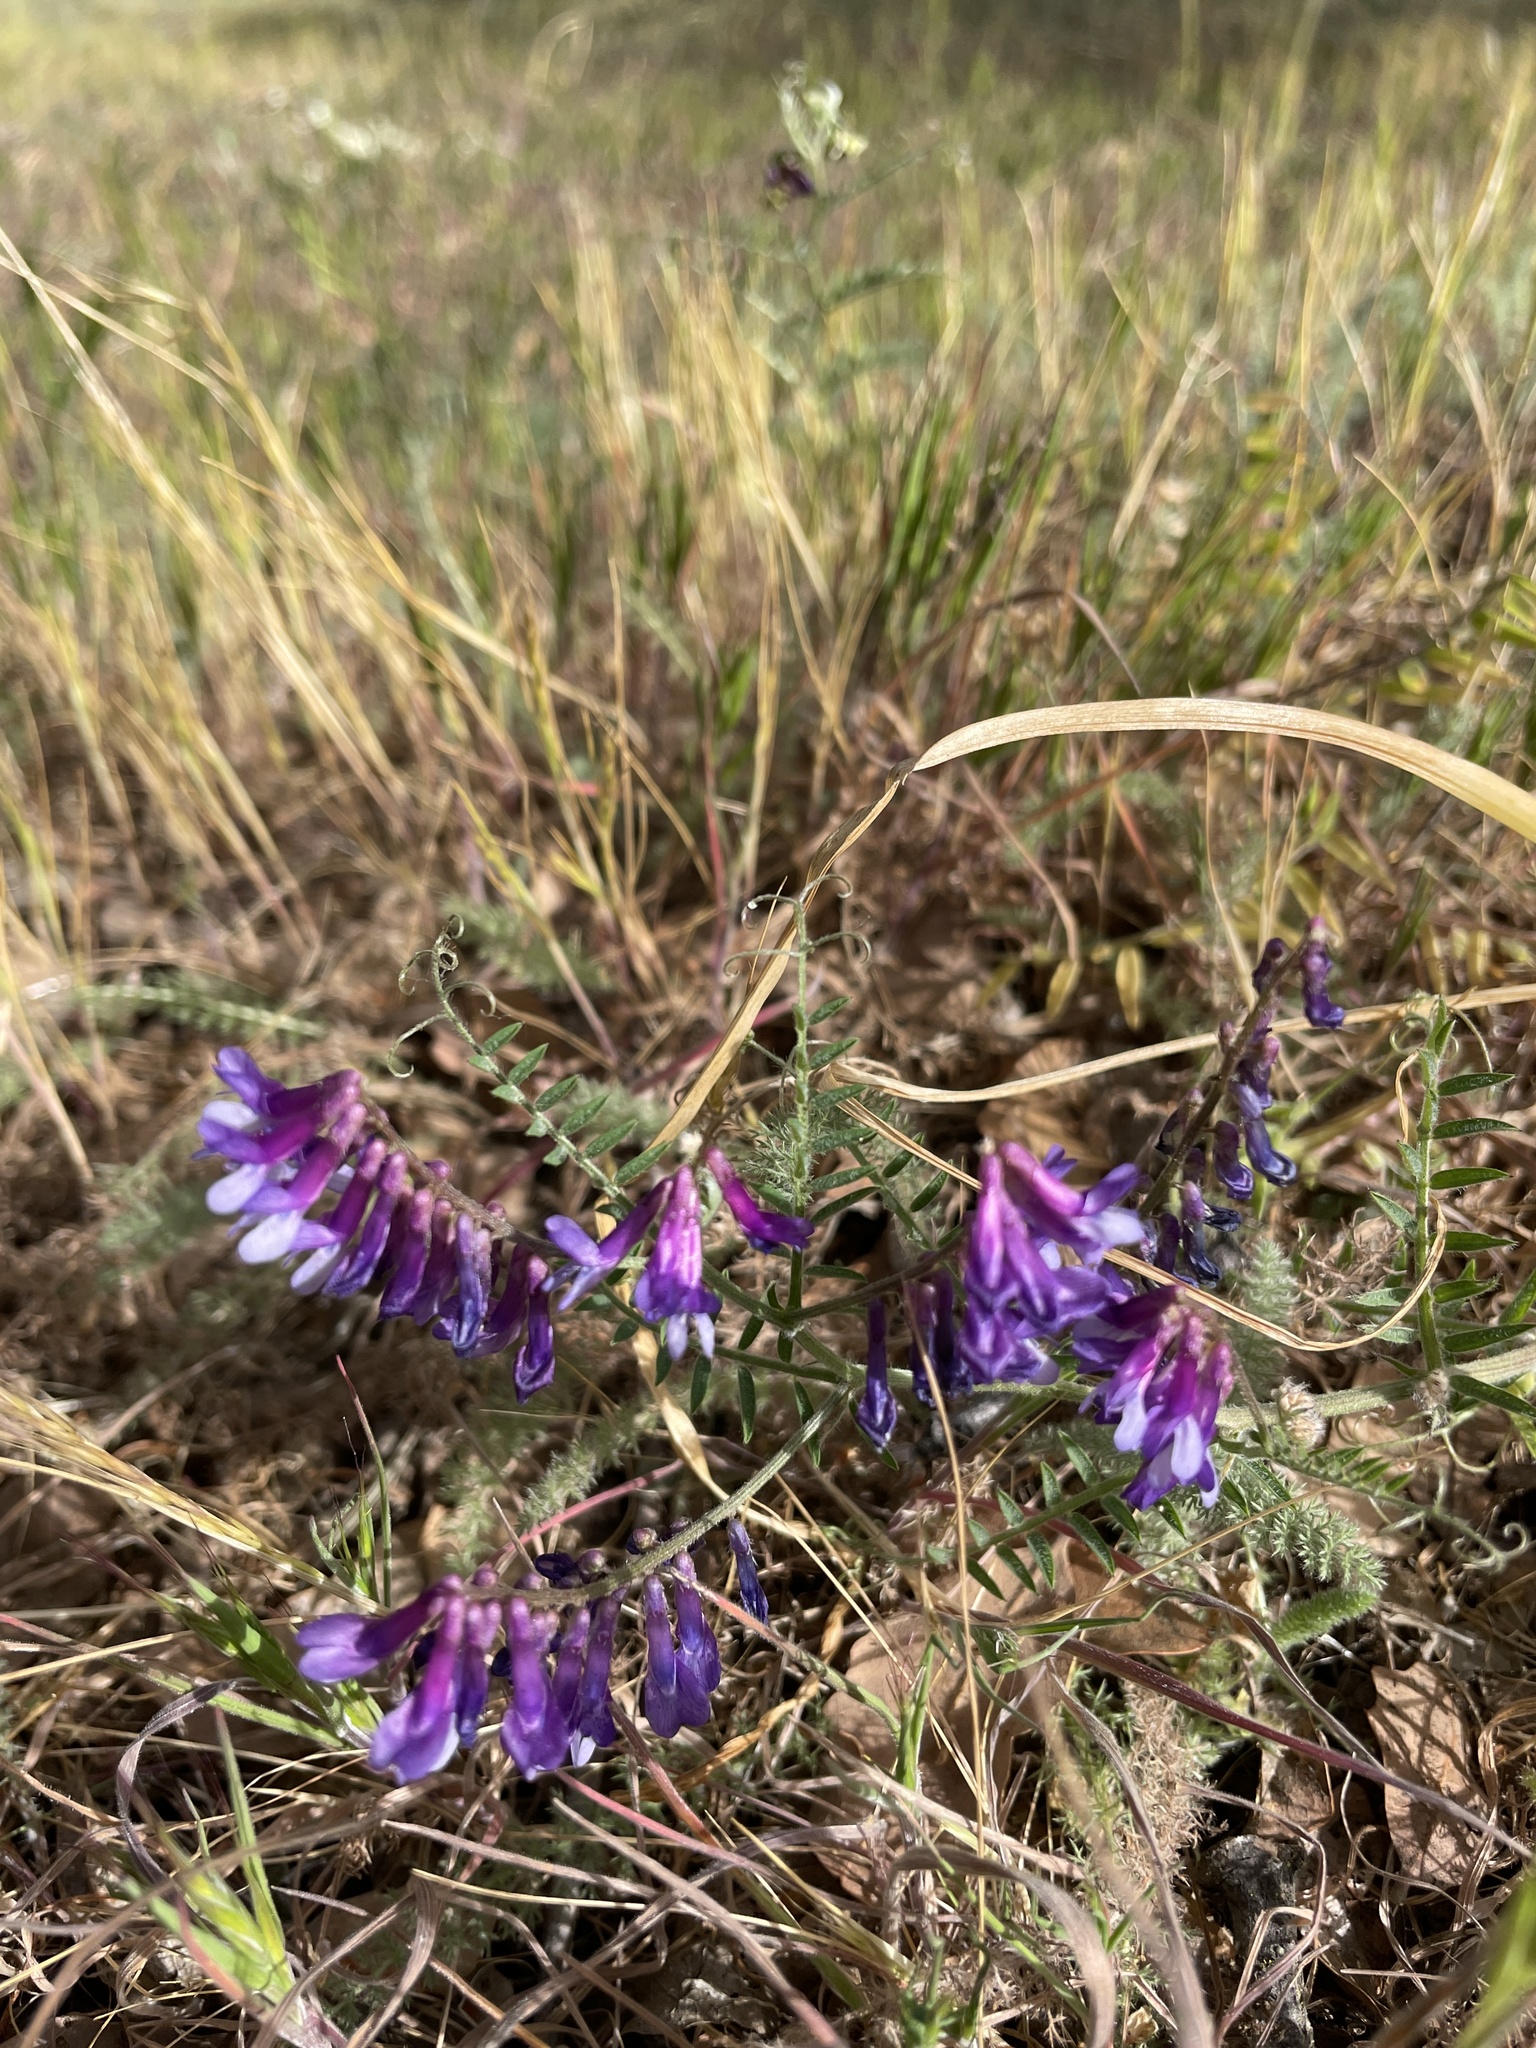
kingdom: Plantae
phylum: Tracheophyta
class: Magnoliopsida
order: Fabales
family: Fabaceae
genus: Vicia
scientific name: Vicia villosa
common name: Fodder vetch
